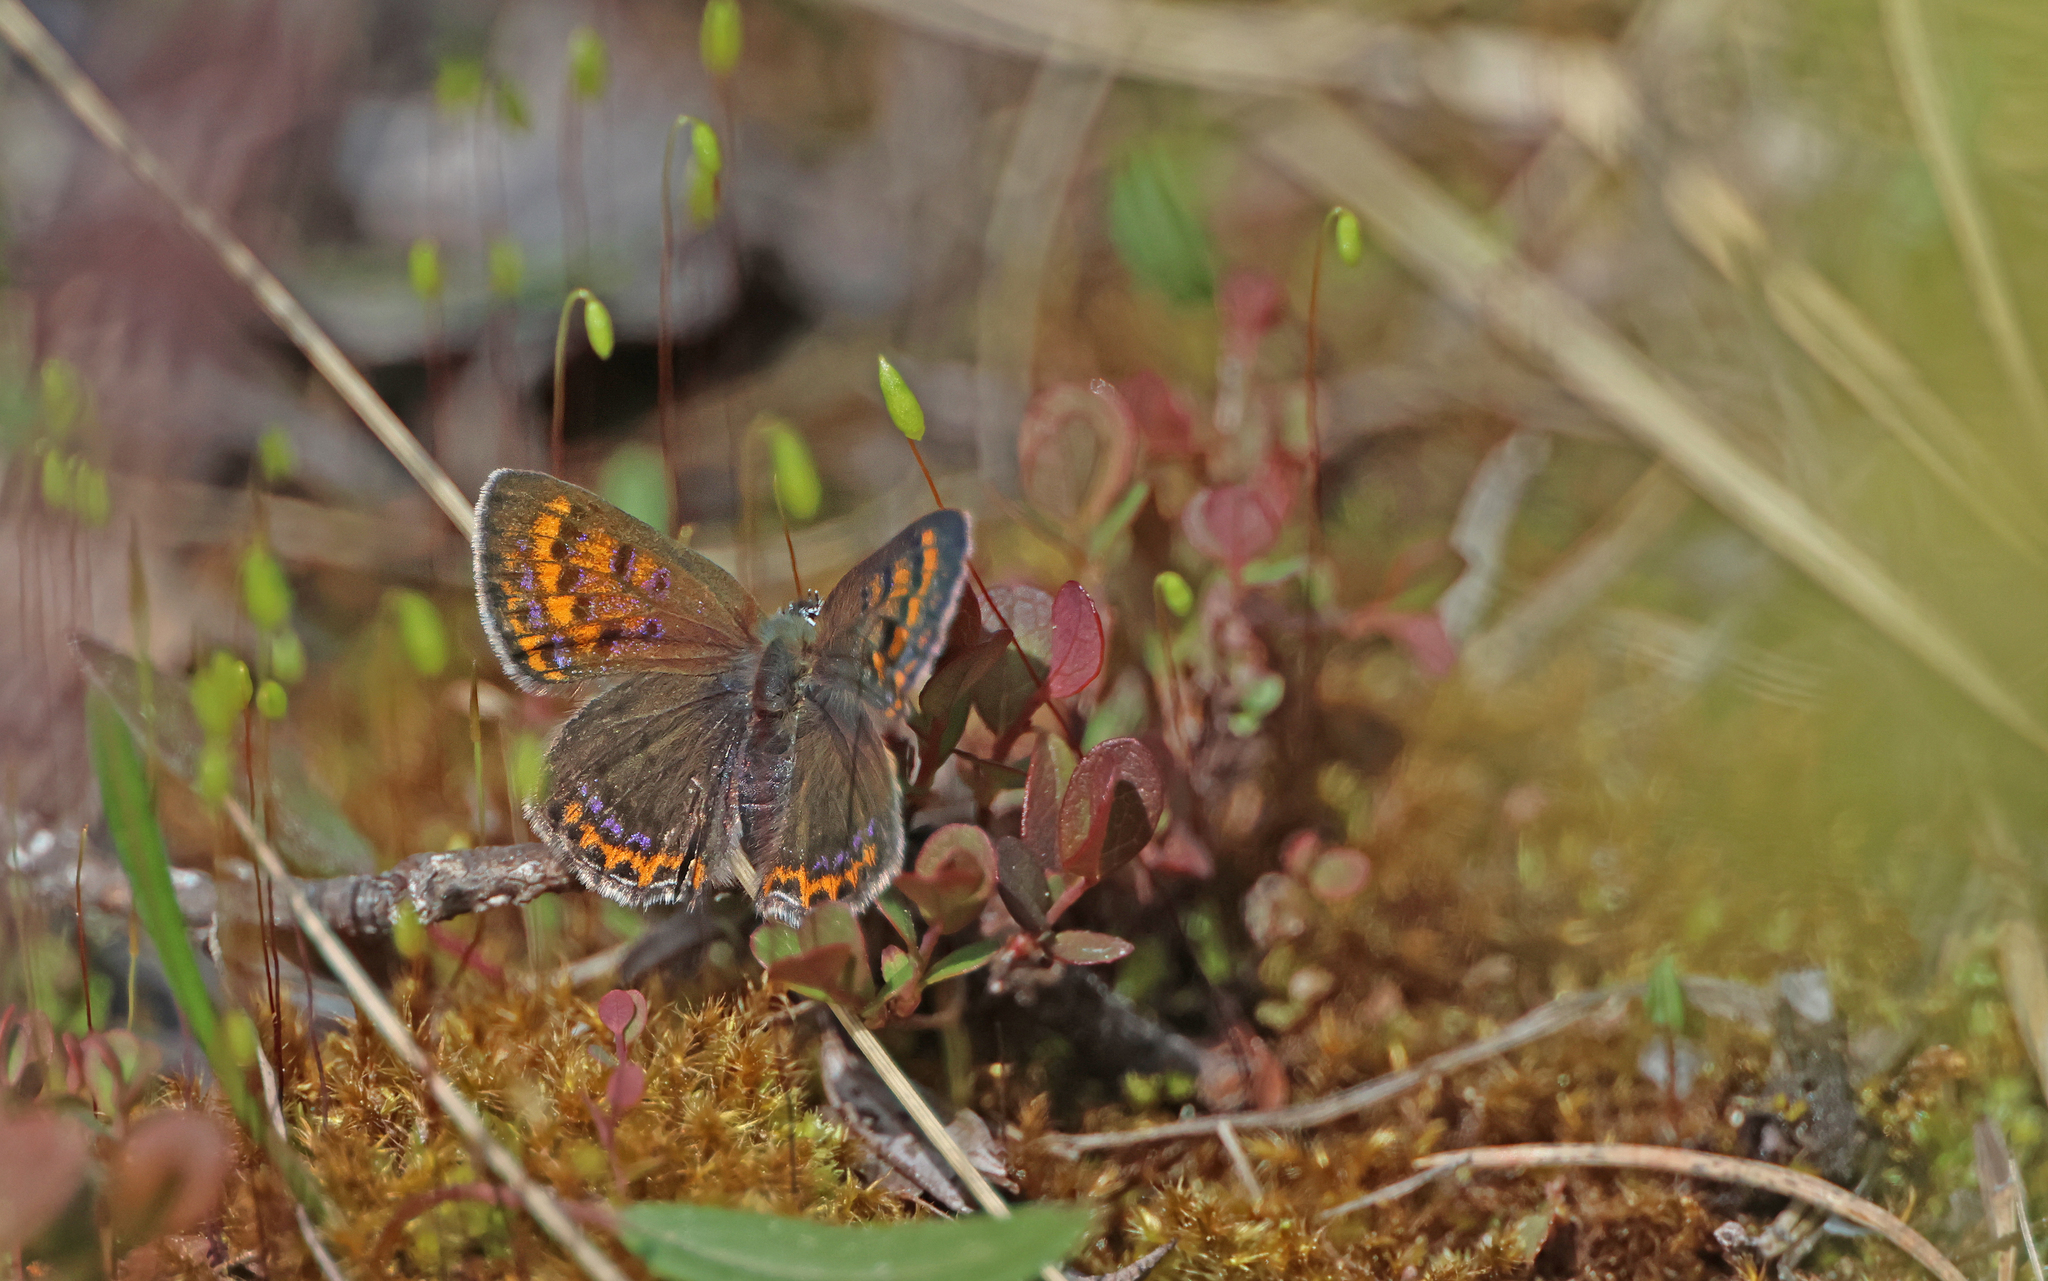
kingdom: Animalia
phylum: Arthropoda
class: Insecta
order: Lepidoptera
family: Lycaenidae
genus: Helleia
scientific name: Helleia helle
